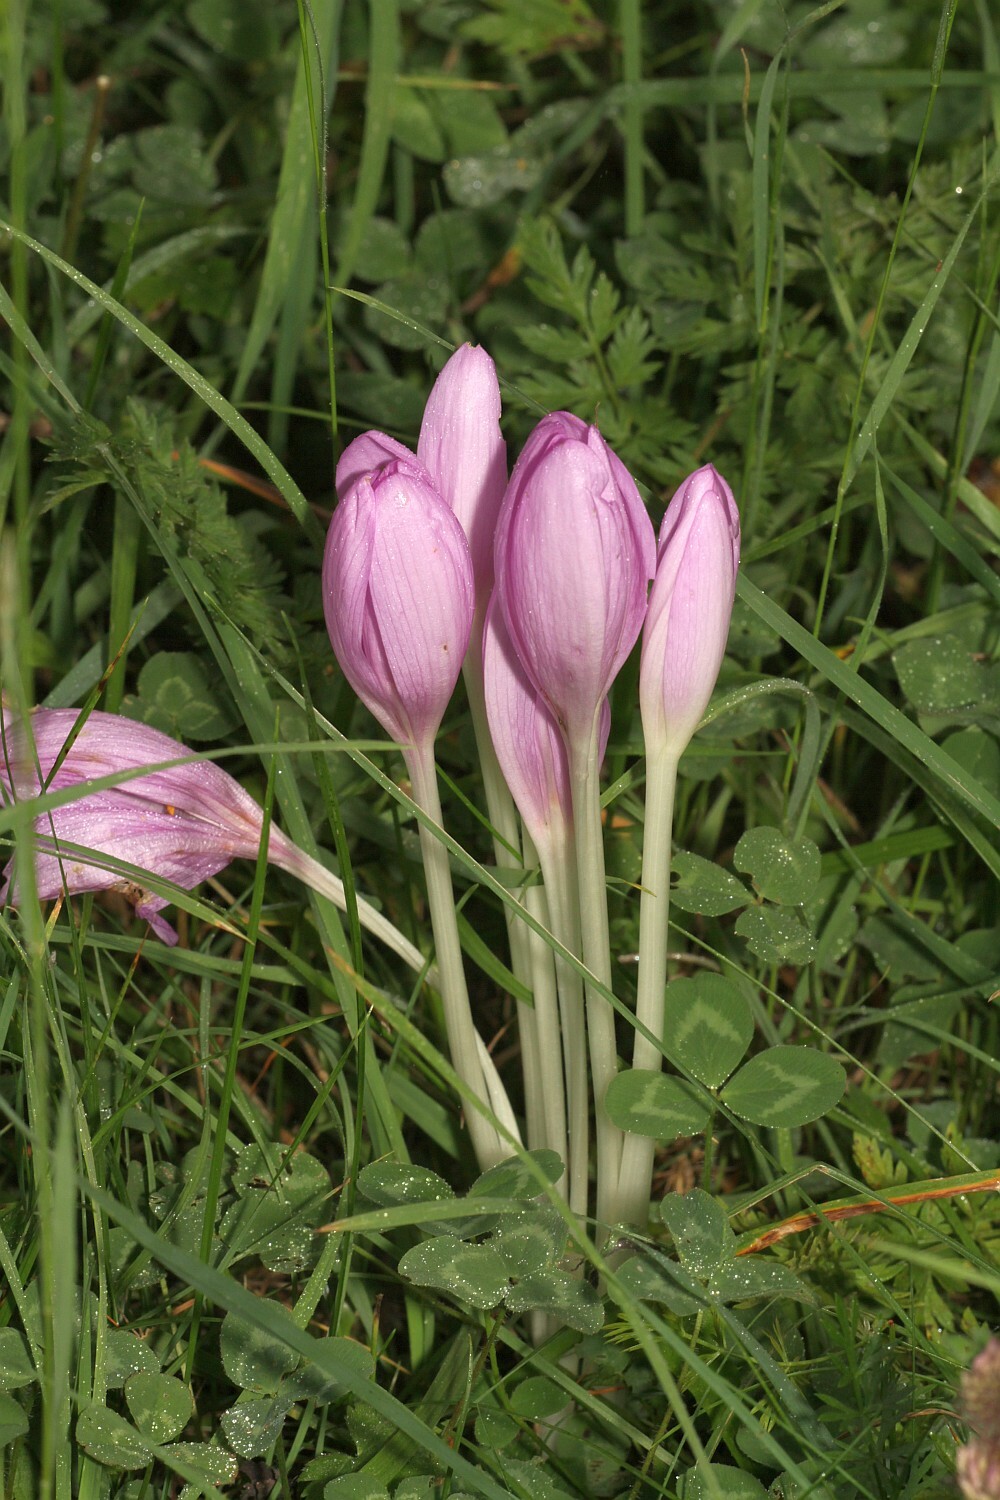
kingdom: Plantae
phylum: Tracheophyta
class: Liliopsida
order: Liliales
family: Colchicaceae
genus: Colchicum
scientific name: Colchicum autumnale
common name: Autumn crocus
